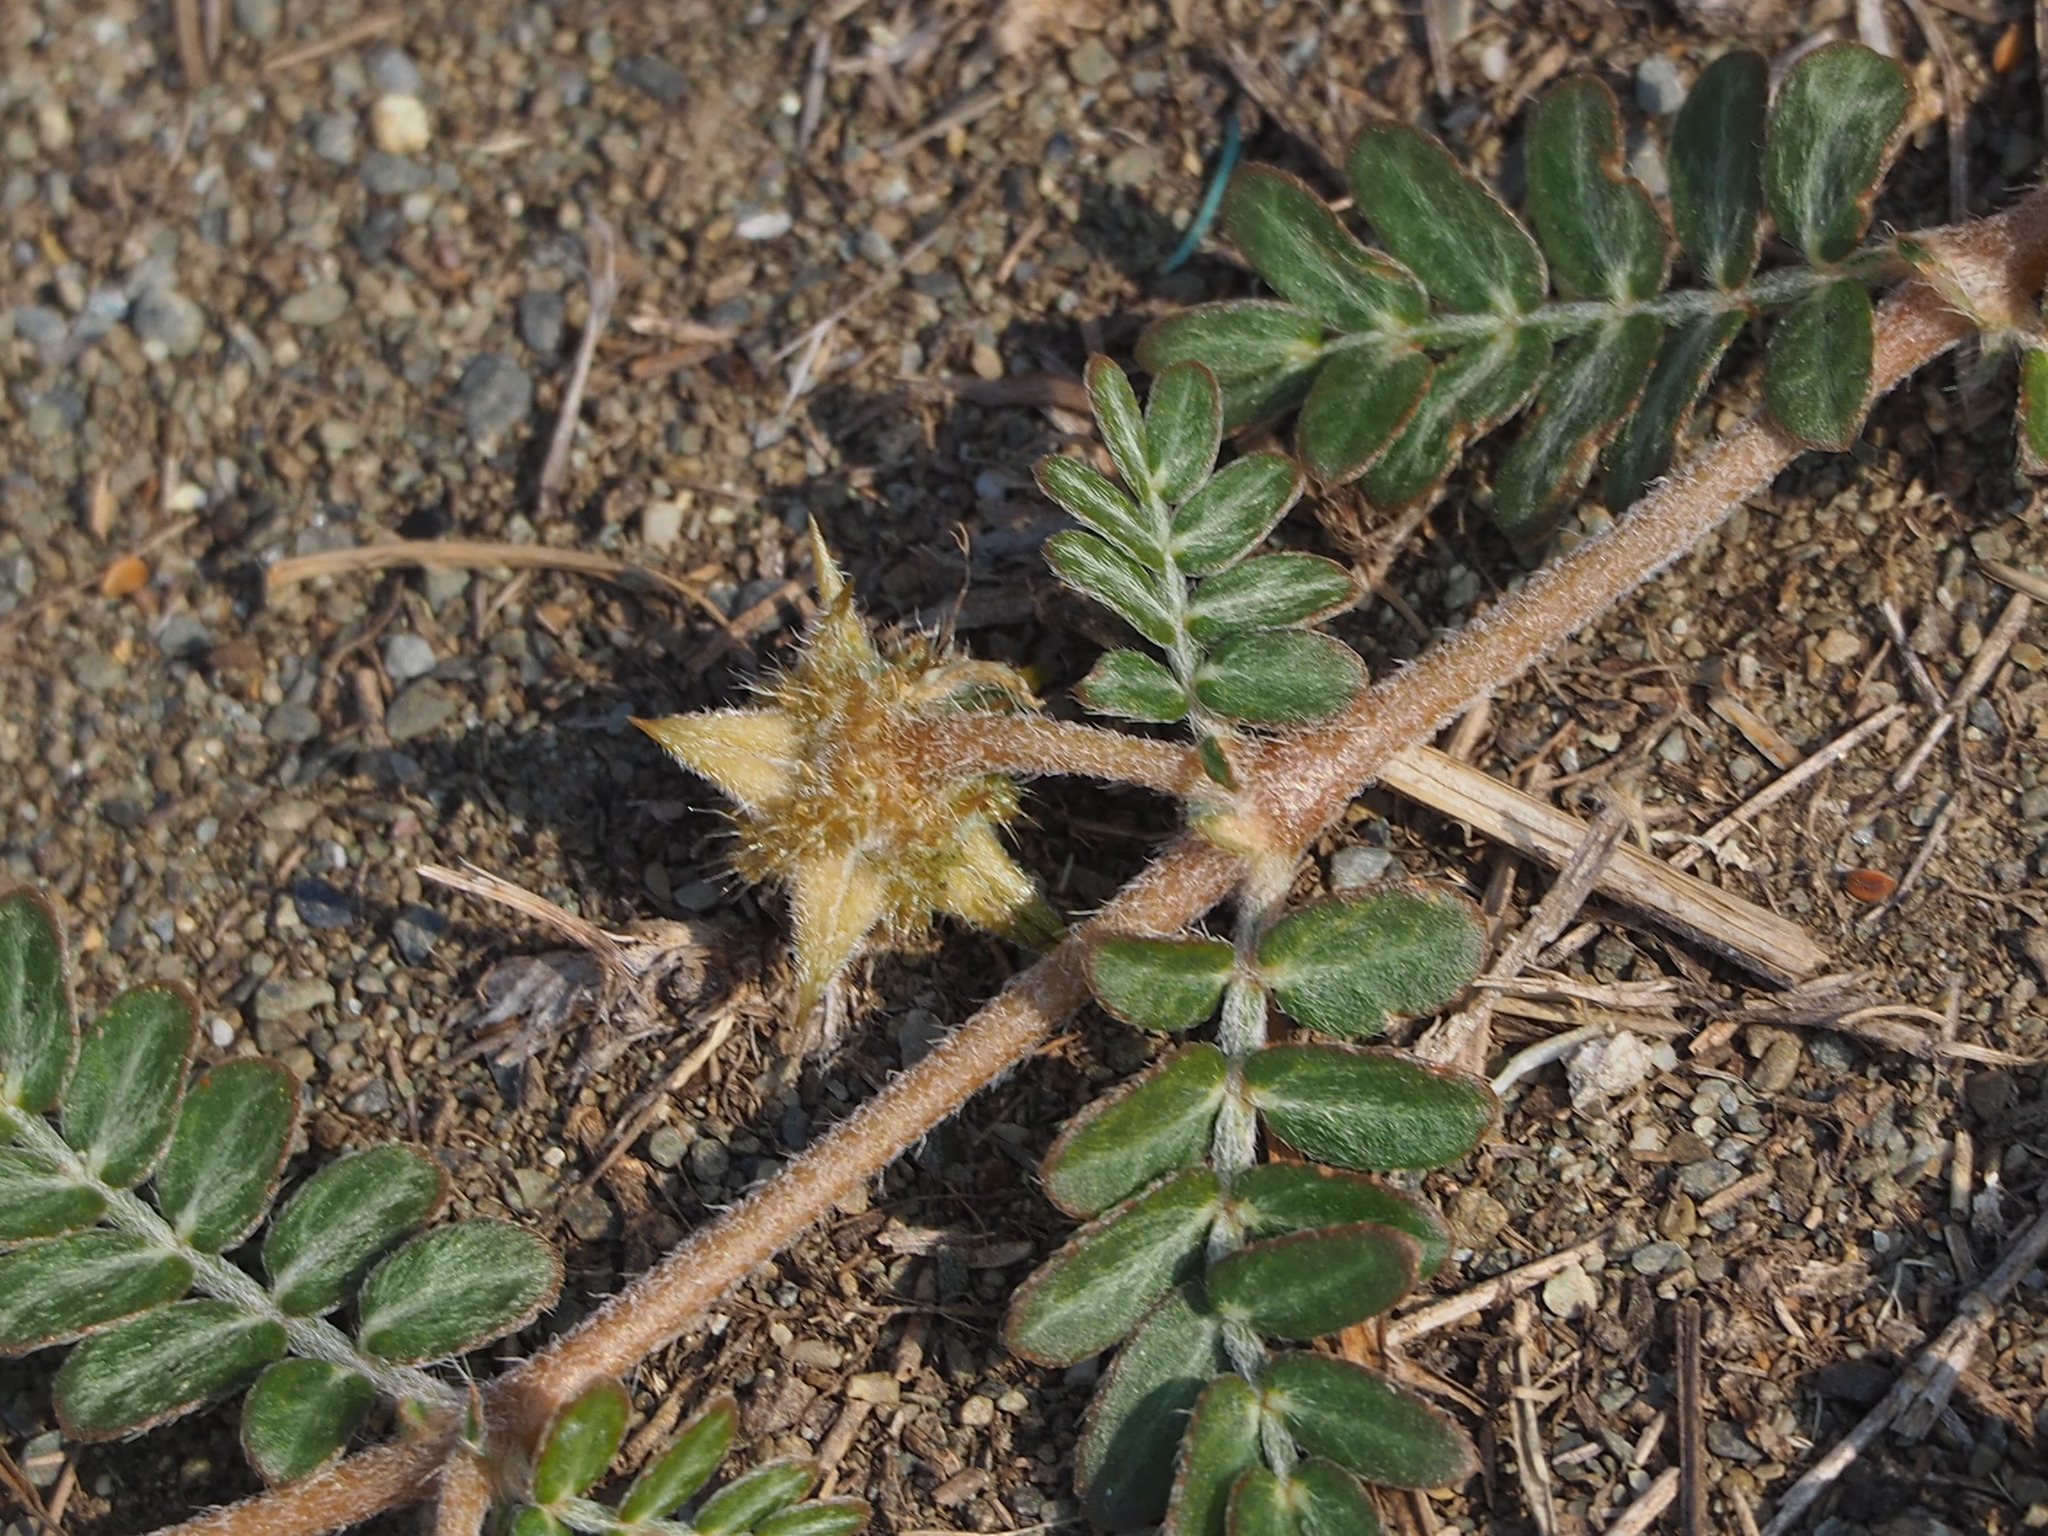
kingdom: Plantae
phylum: Tracheophyta
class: Magnoliopsida
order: Zygophyllales
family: Zygophyllaceae
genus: Tribulus
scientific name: Tribulus cistoides
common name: Jamaican feverplant
